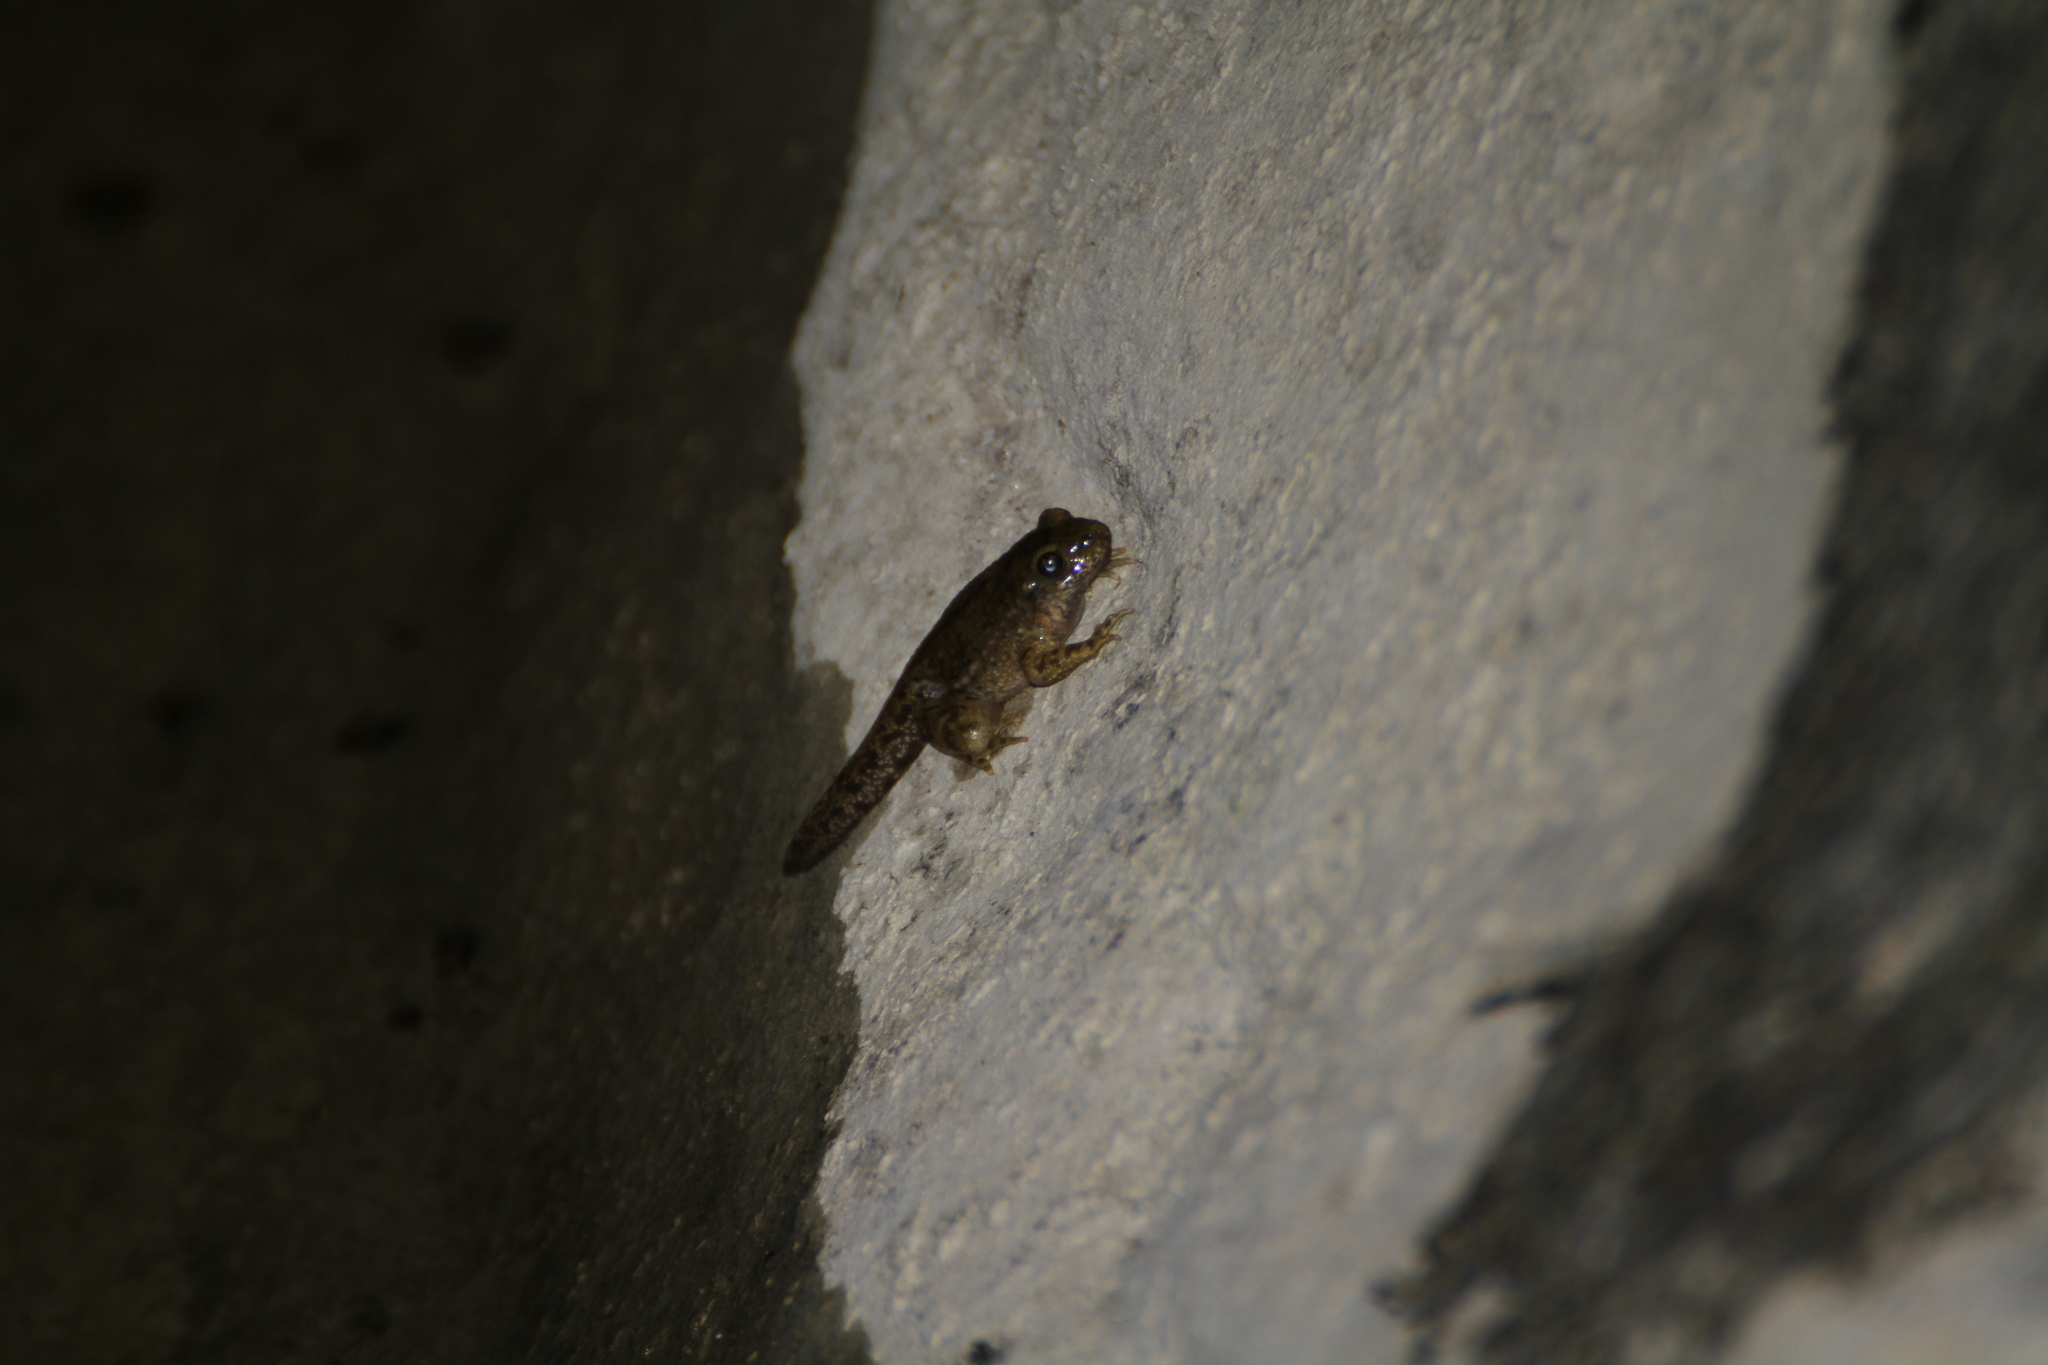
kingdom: Animalia
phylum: Chordata
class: Amphibia
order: Anura
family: Alytidae
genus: Alytes
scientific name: Alytes obstetricans
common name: Midwife toad
